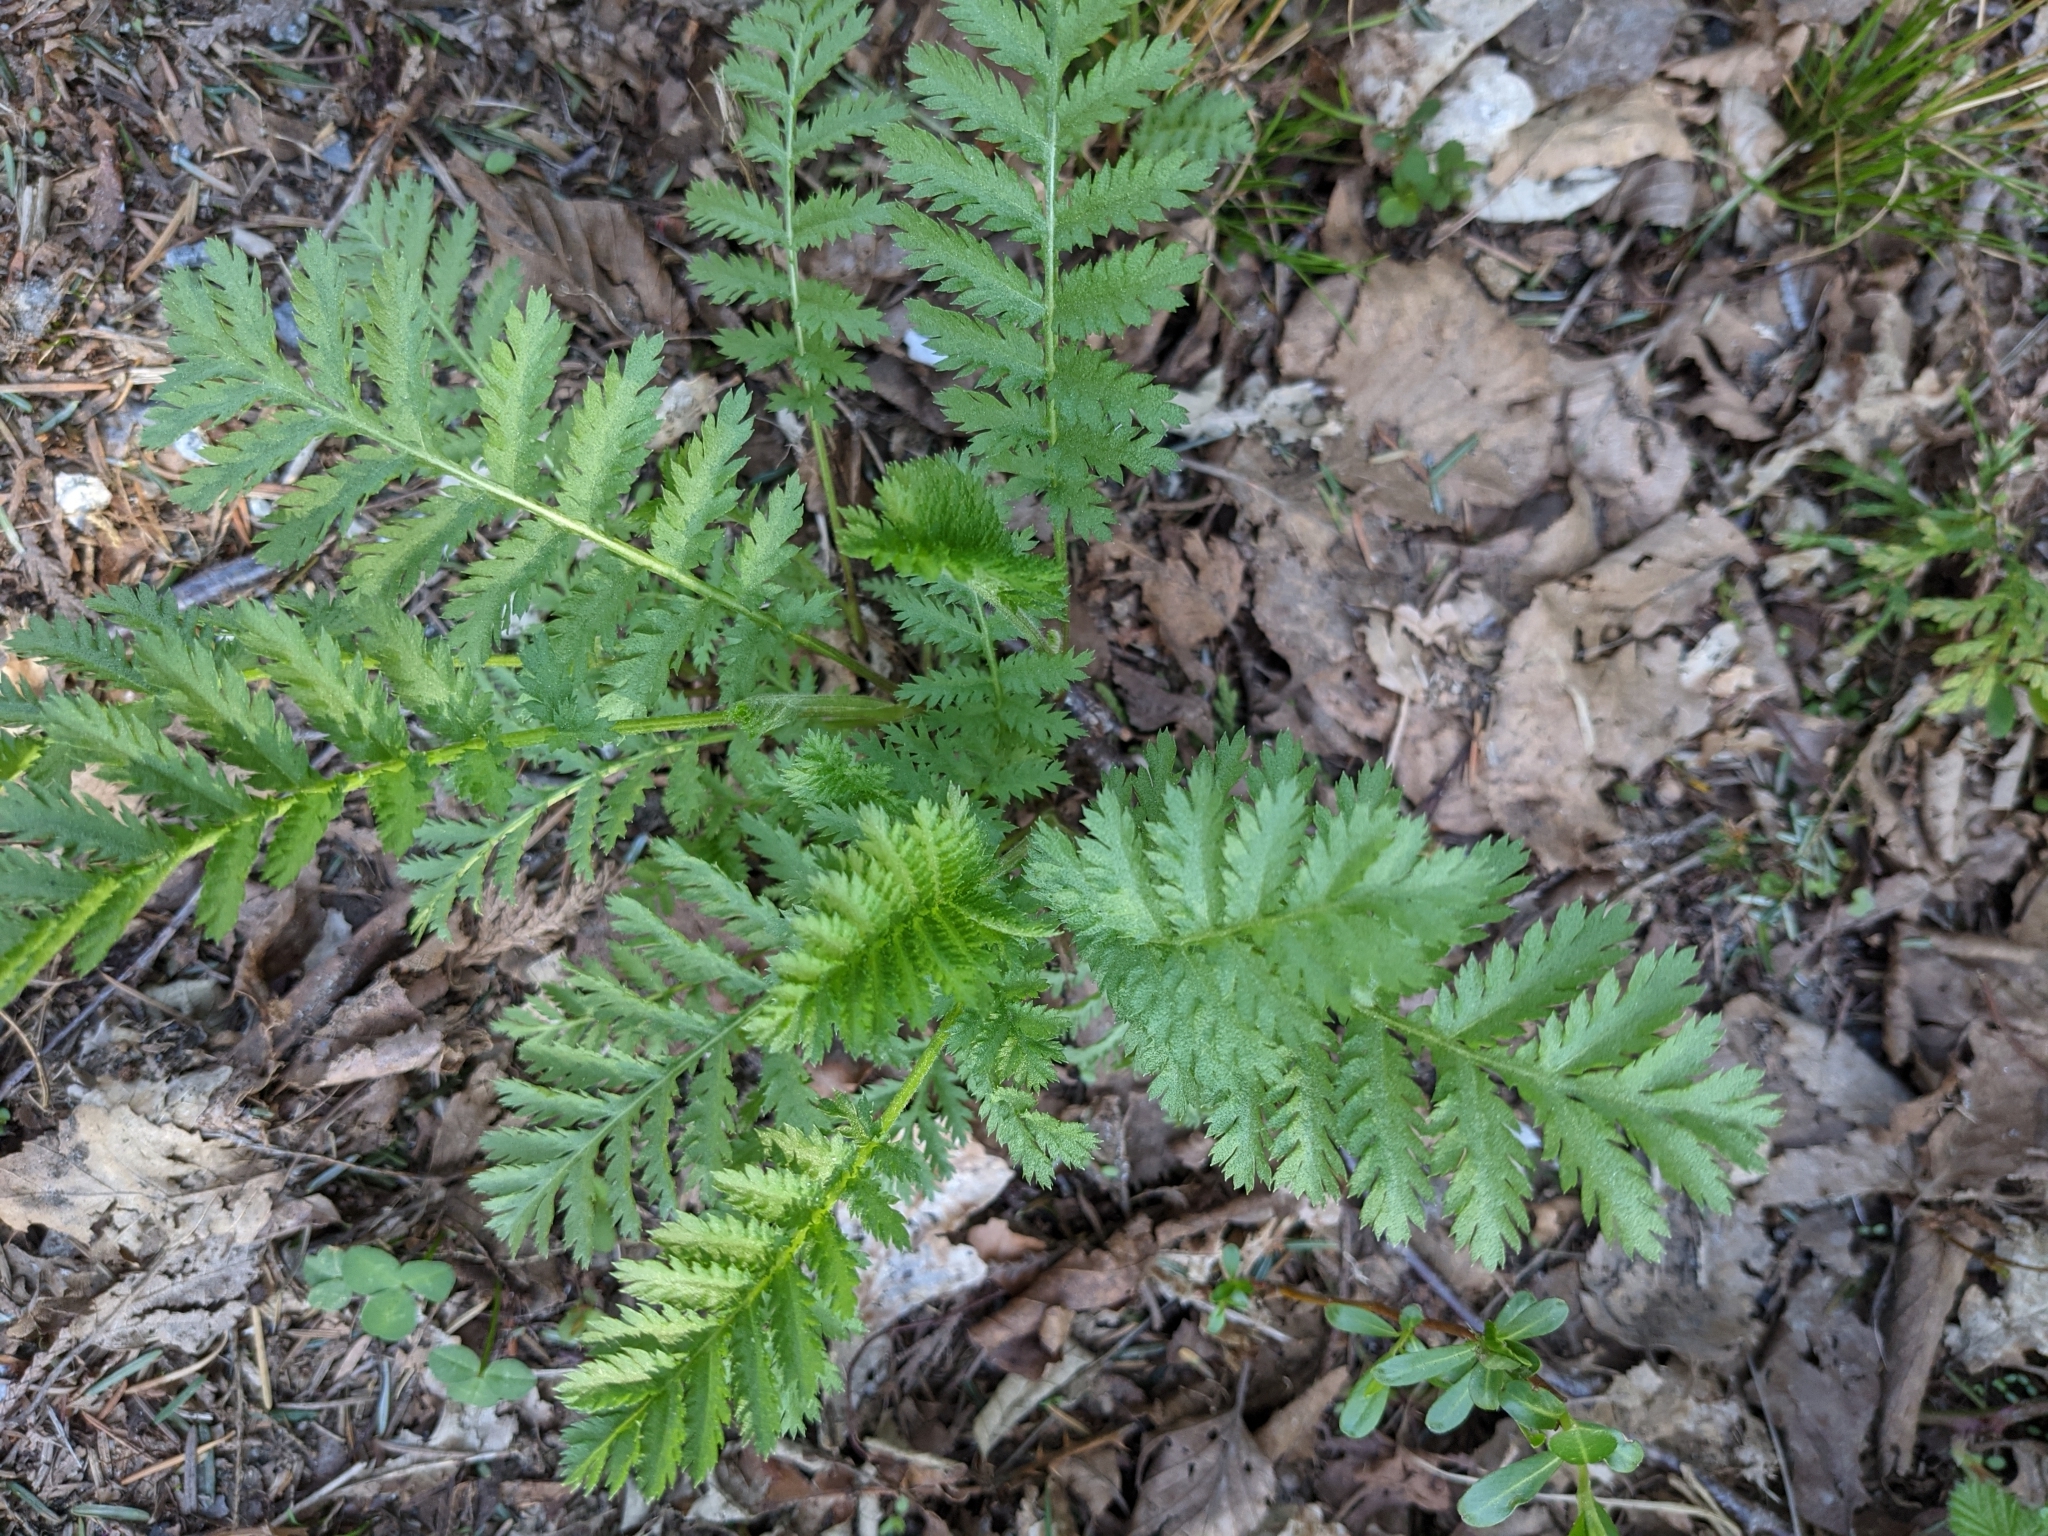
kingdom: Plantae
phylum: Tracheophyta
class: Magnoliopsida
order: Asterales
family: Asteraceae
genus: Tanacetum
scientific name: Tanacetum vulgare
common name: Common tansy
